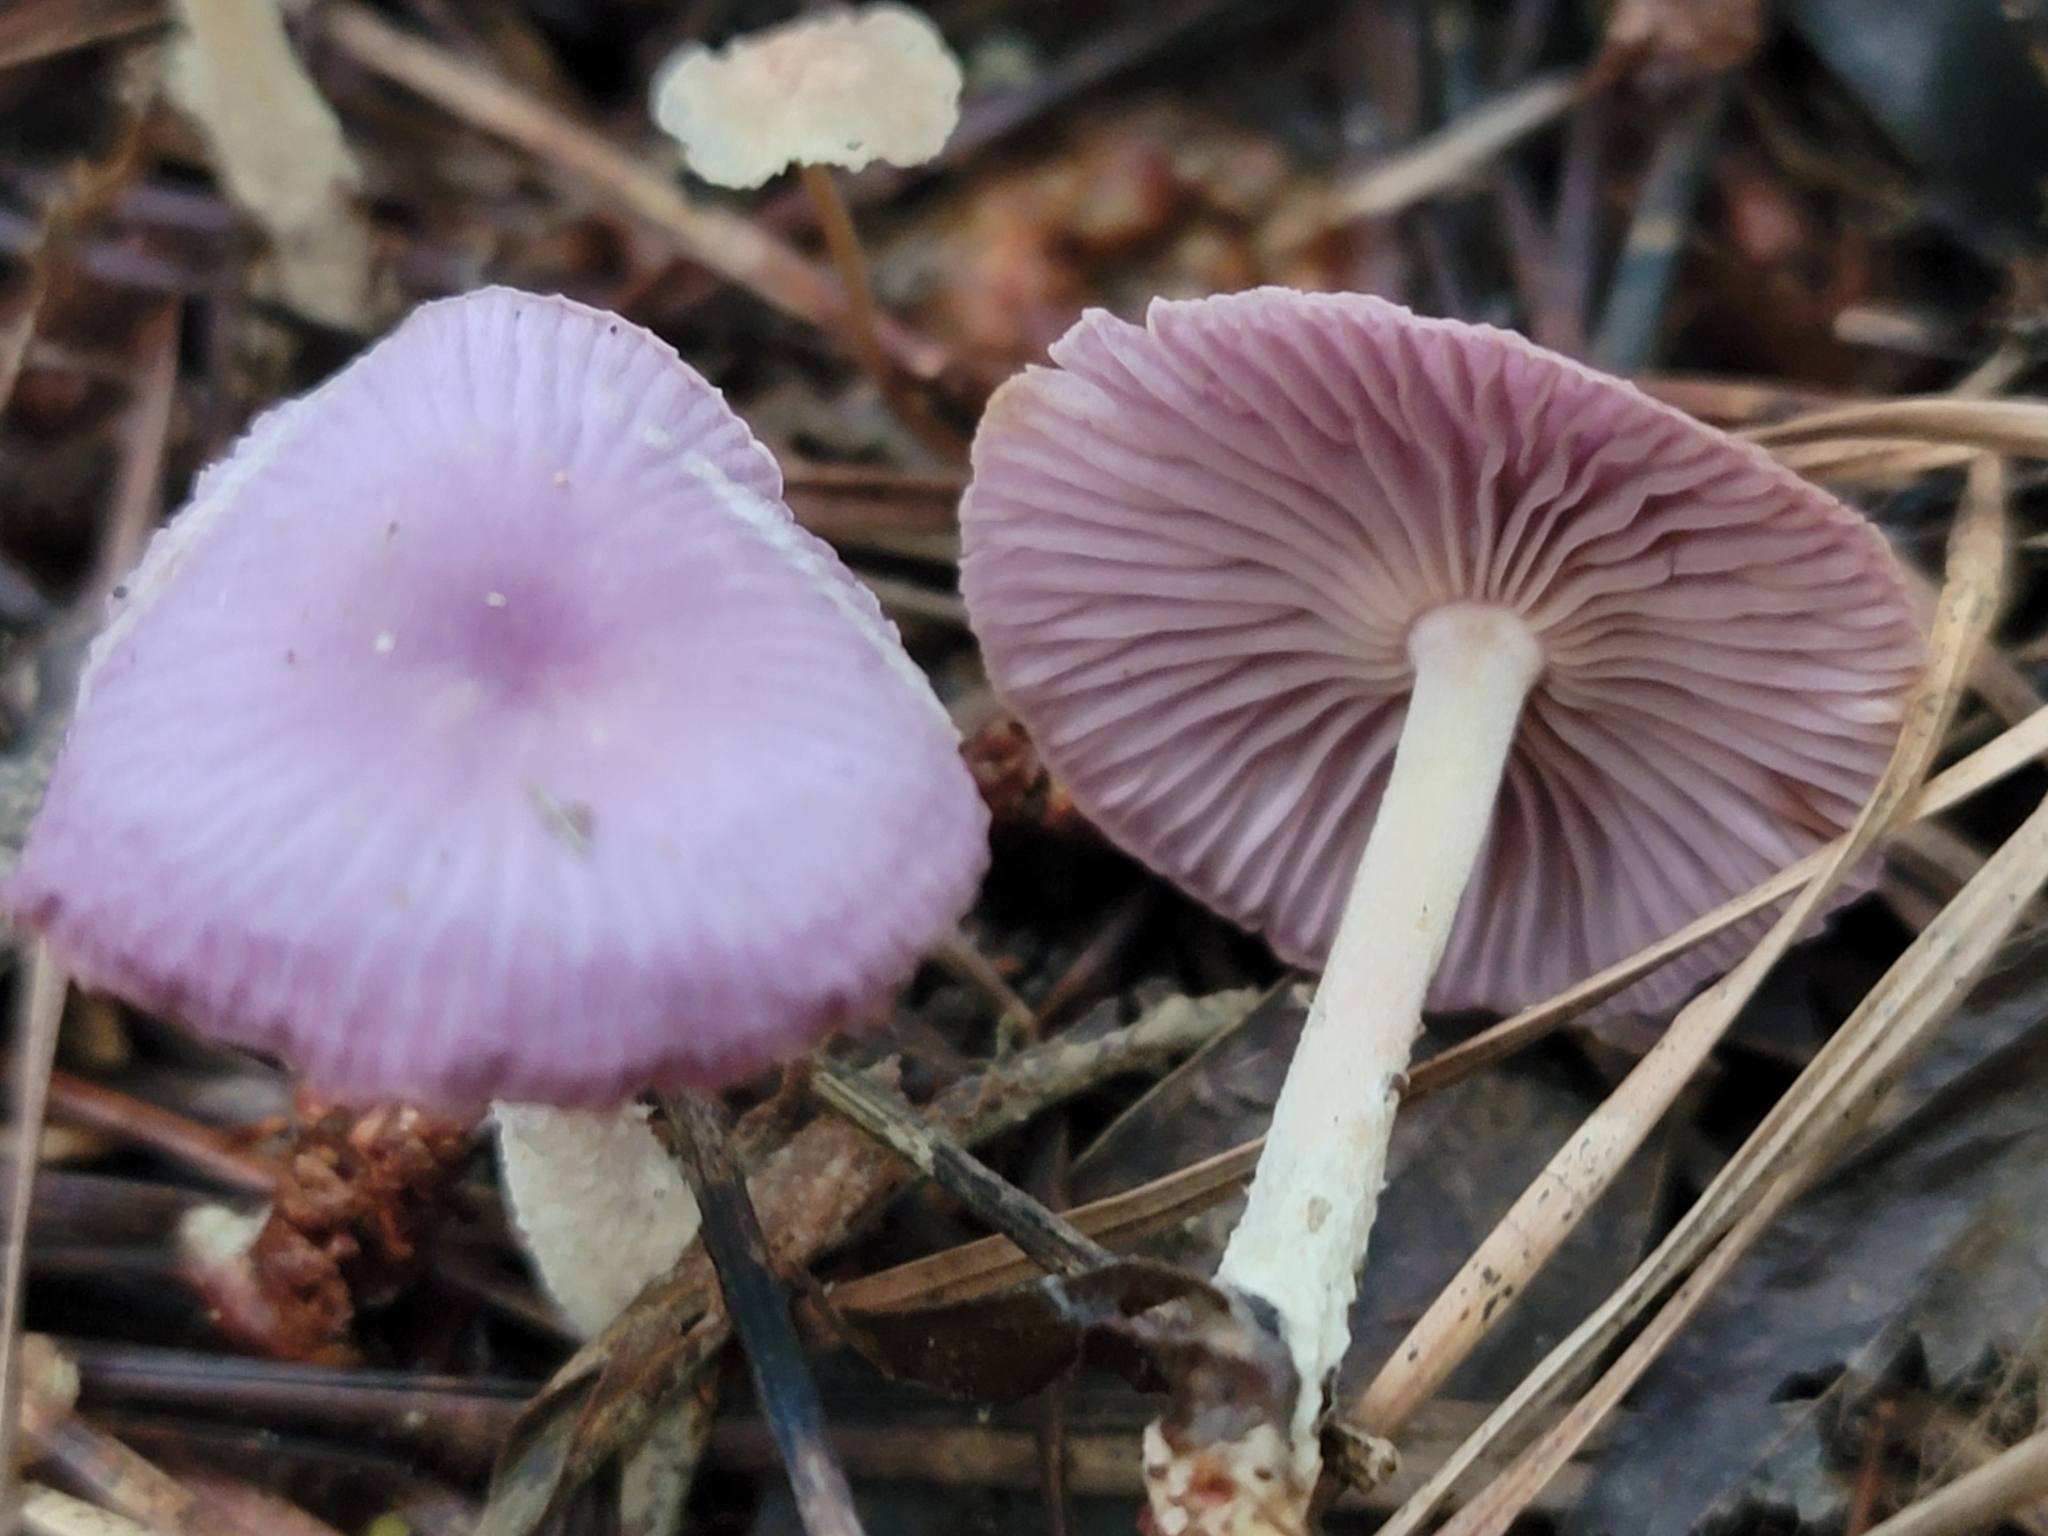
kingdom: Fungi
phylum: Basidiomycota
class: Agaricomycetes
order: Agaricales
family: Omphalotaceae
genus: Gymnopus
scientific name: Gymnopus iocephalus
